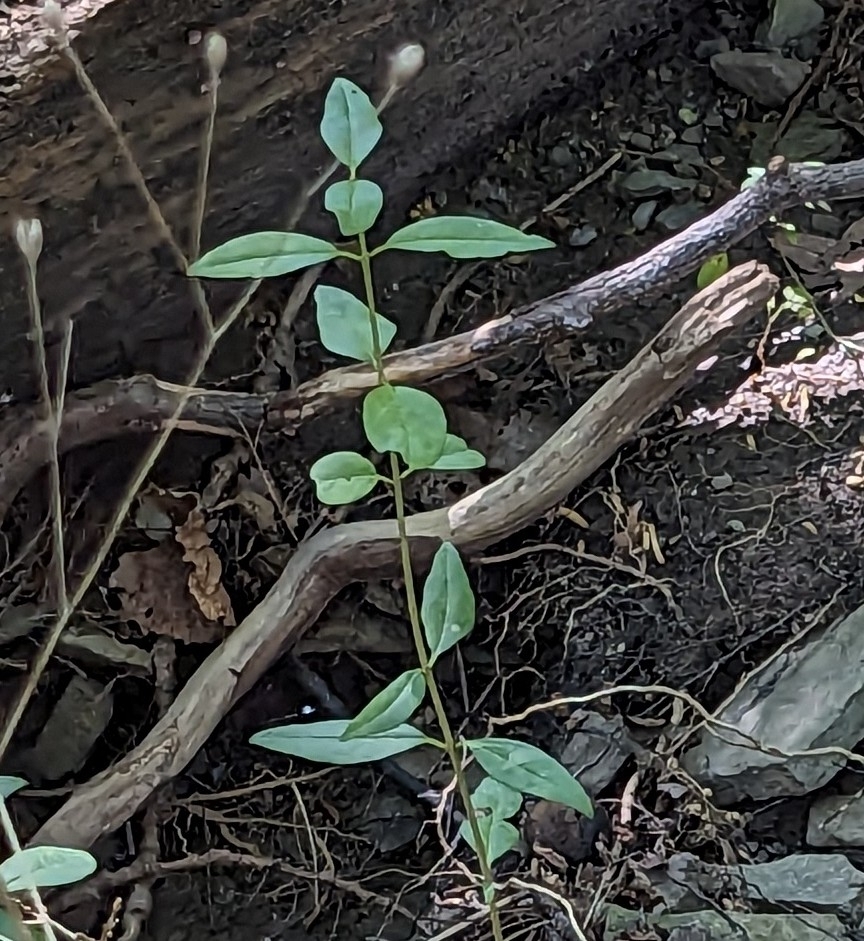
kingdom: Plantae
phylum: Tracheophyta
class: Magnoliopsida
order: Lamiales
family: Oleaceae
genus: Ligustrum
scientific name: Ligustrum obtusifolium
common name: Border privet
